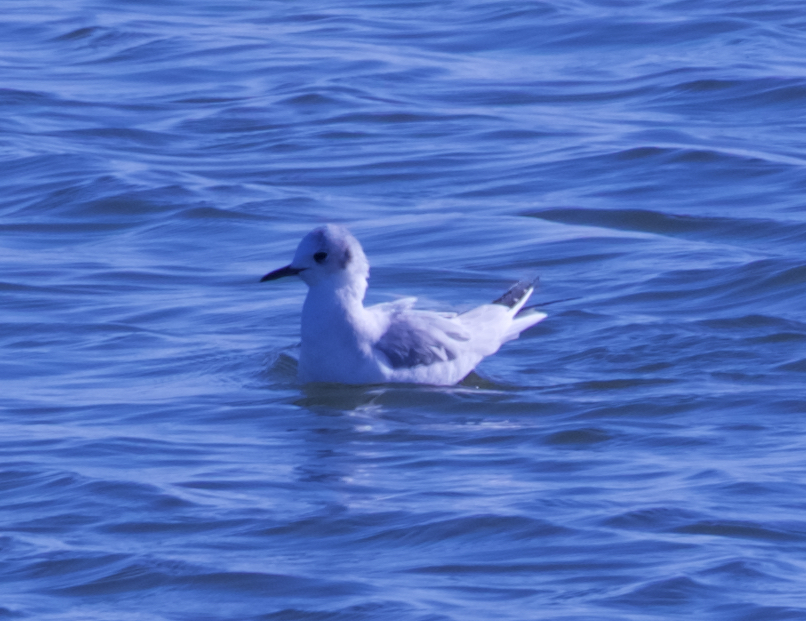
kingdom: Animalia
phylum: Chordata
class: Aves
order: Charadriiformes
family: Laridae
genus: Chroicocephalus
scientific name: Chroicocephalus philadelphia
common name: Bonaparte's gull
